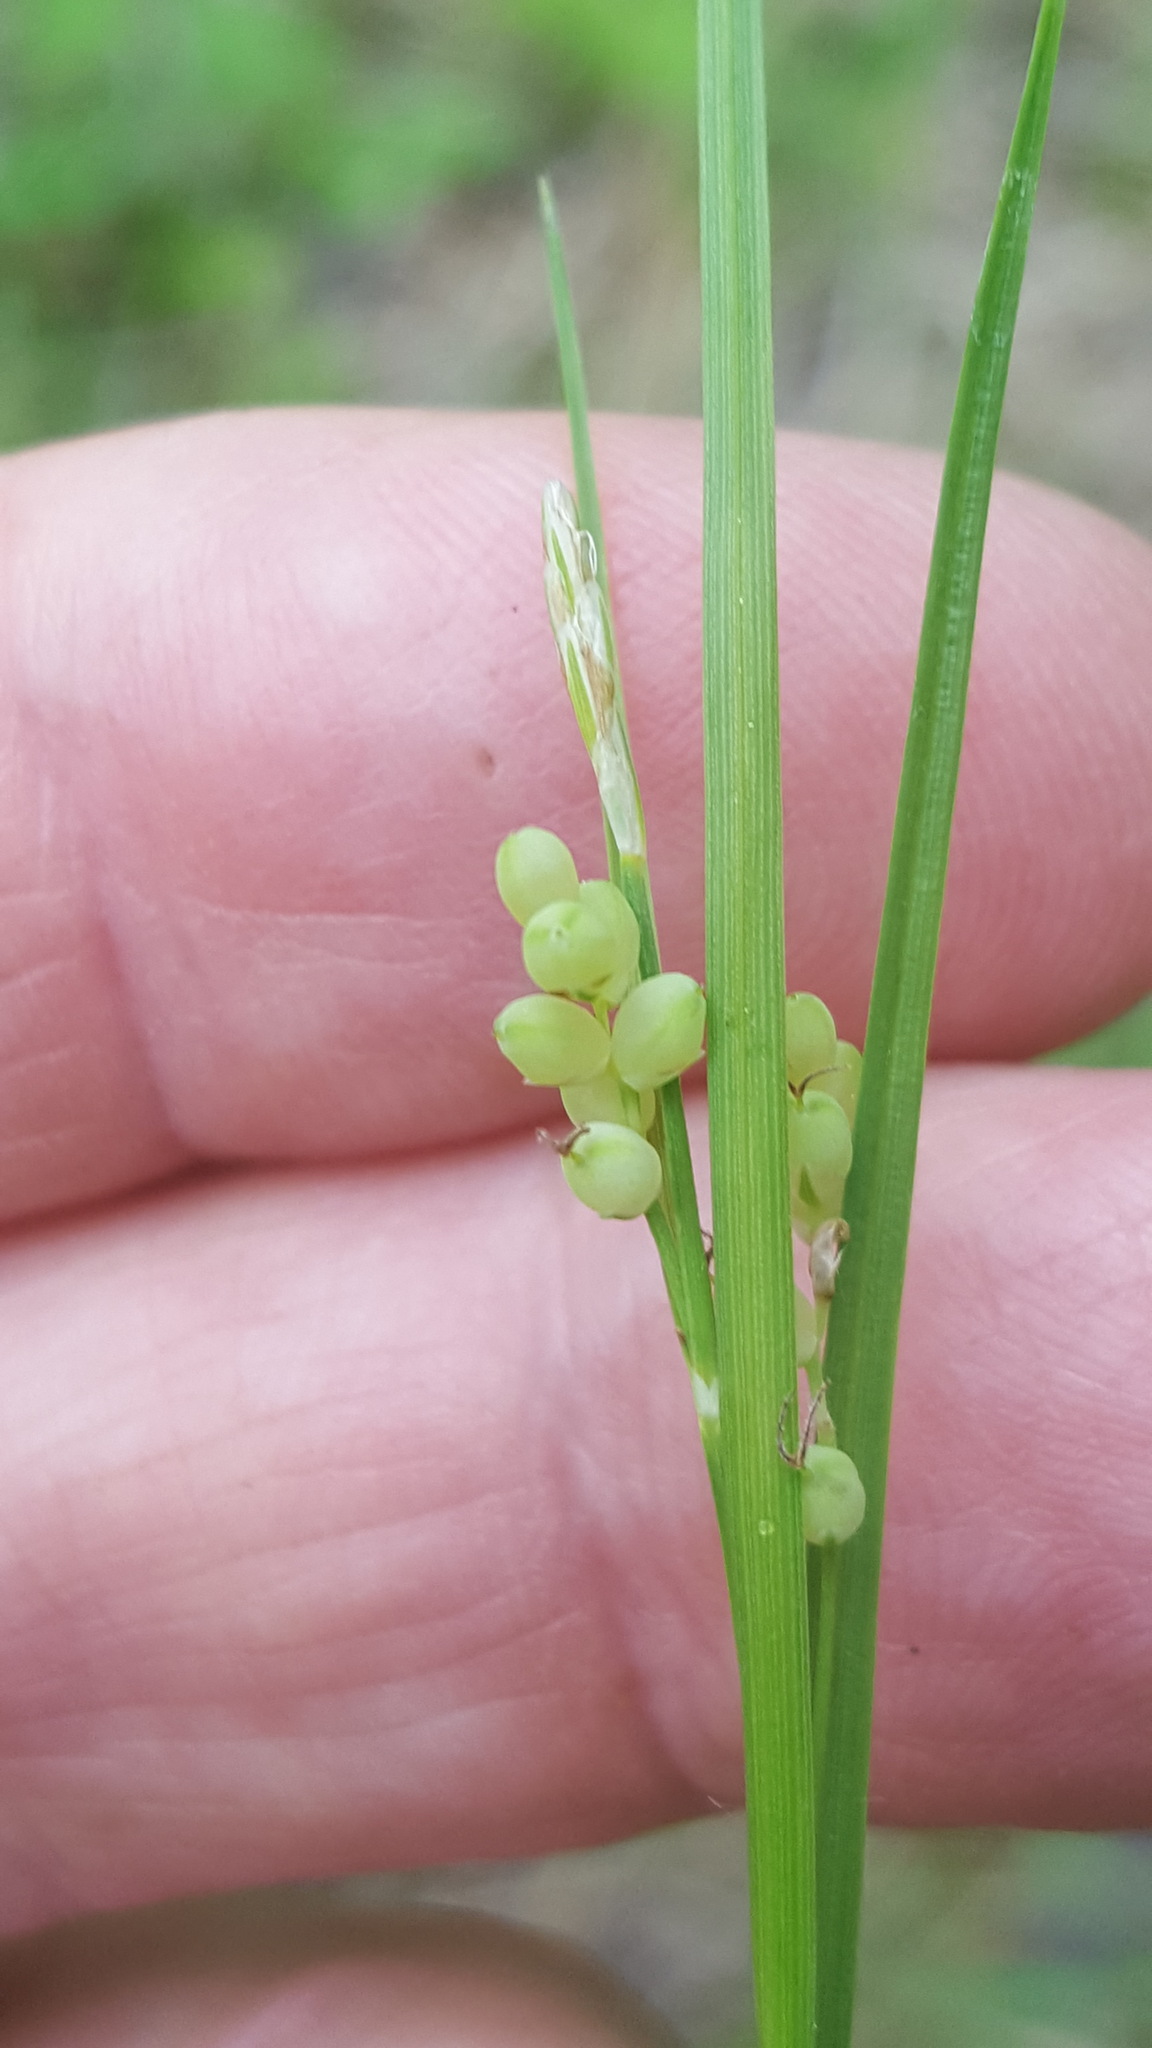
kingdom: Plantae
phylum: Tracheophyta
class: Liliopsida
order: Poales
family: Cyperaceae
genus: Carex
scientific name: Carex aurea
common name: Golden sedge
